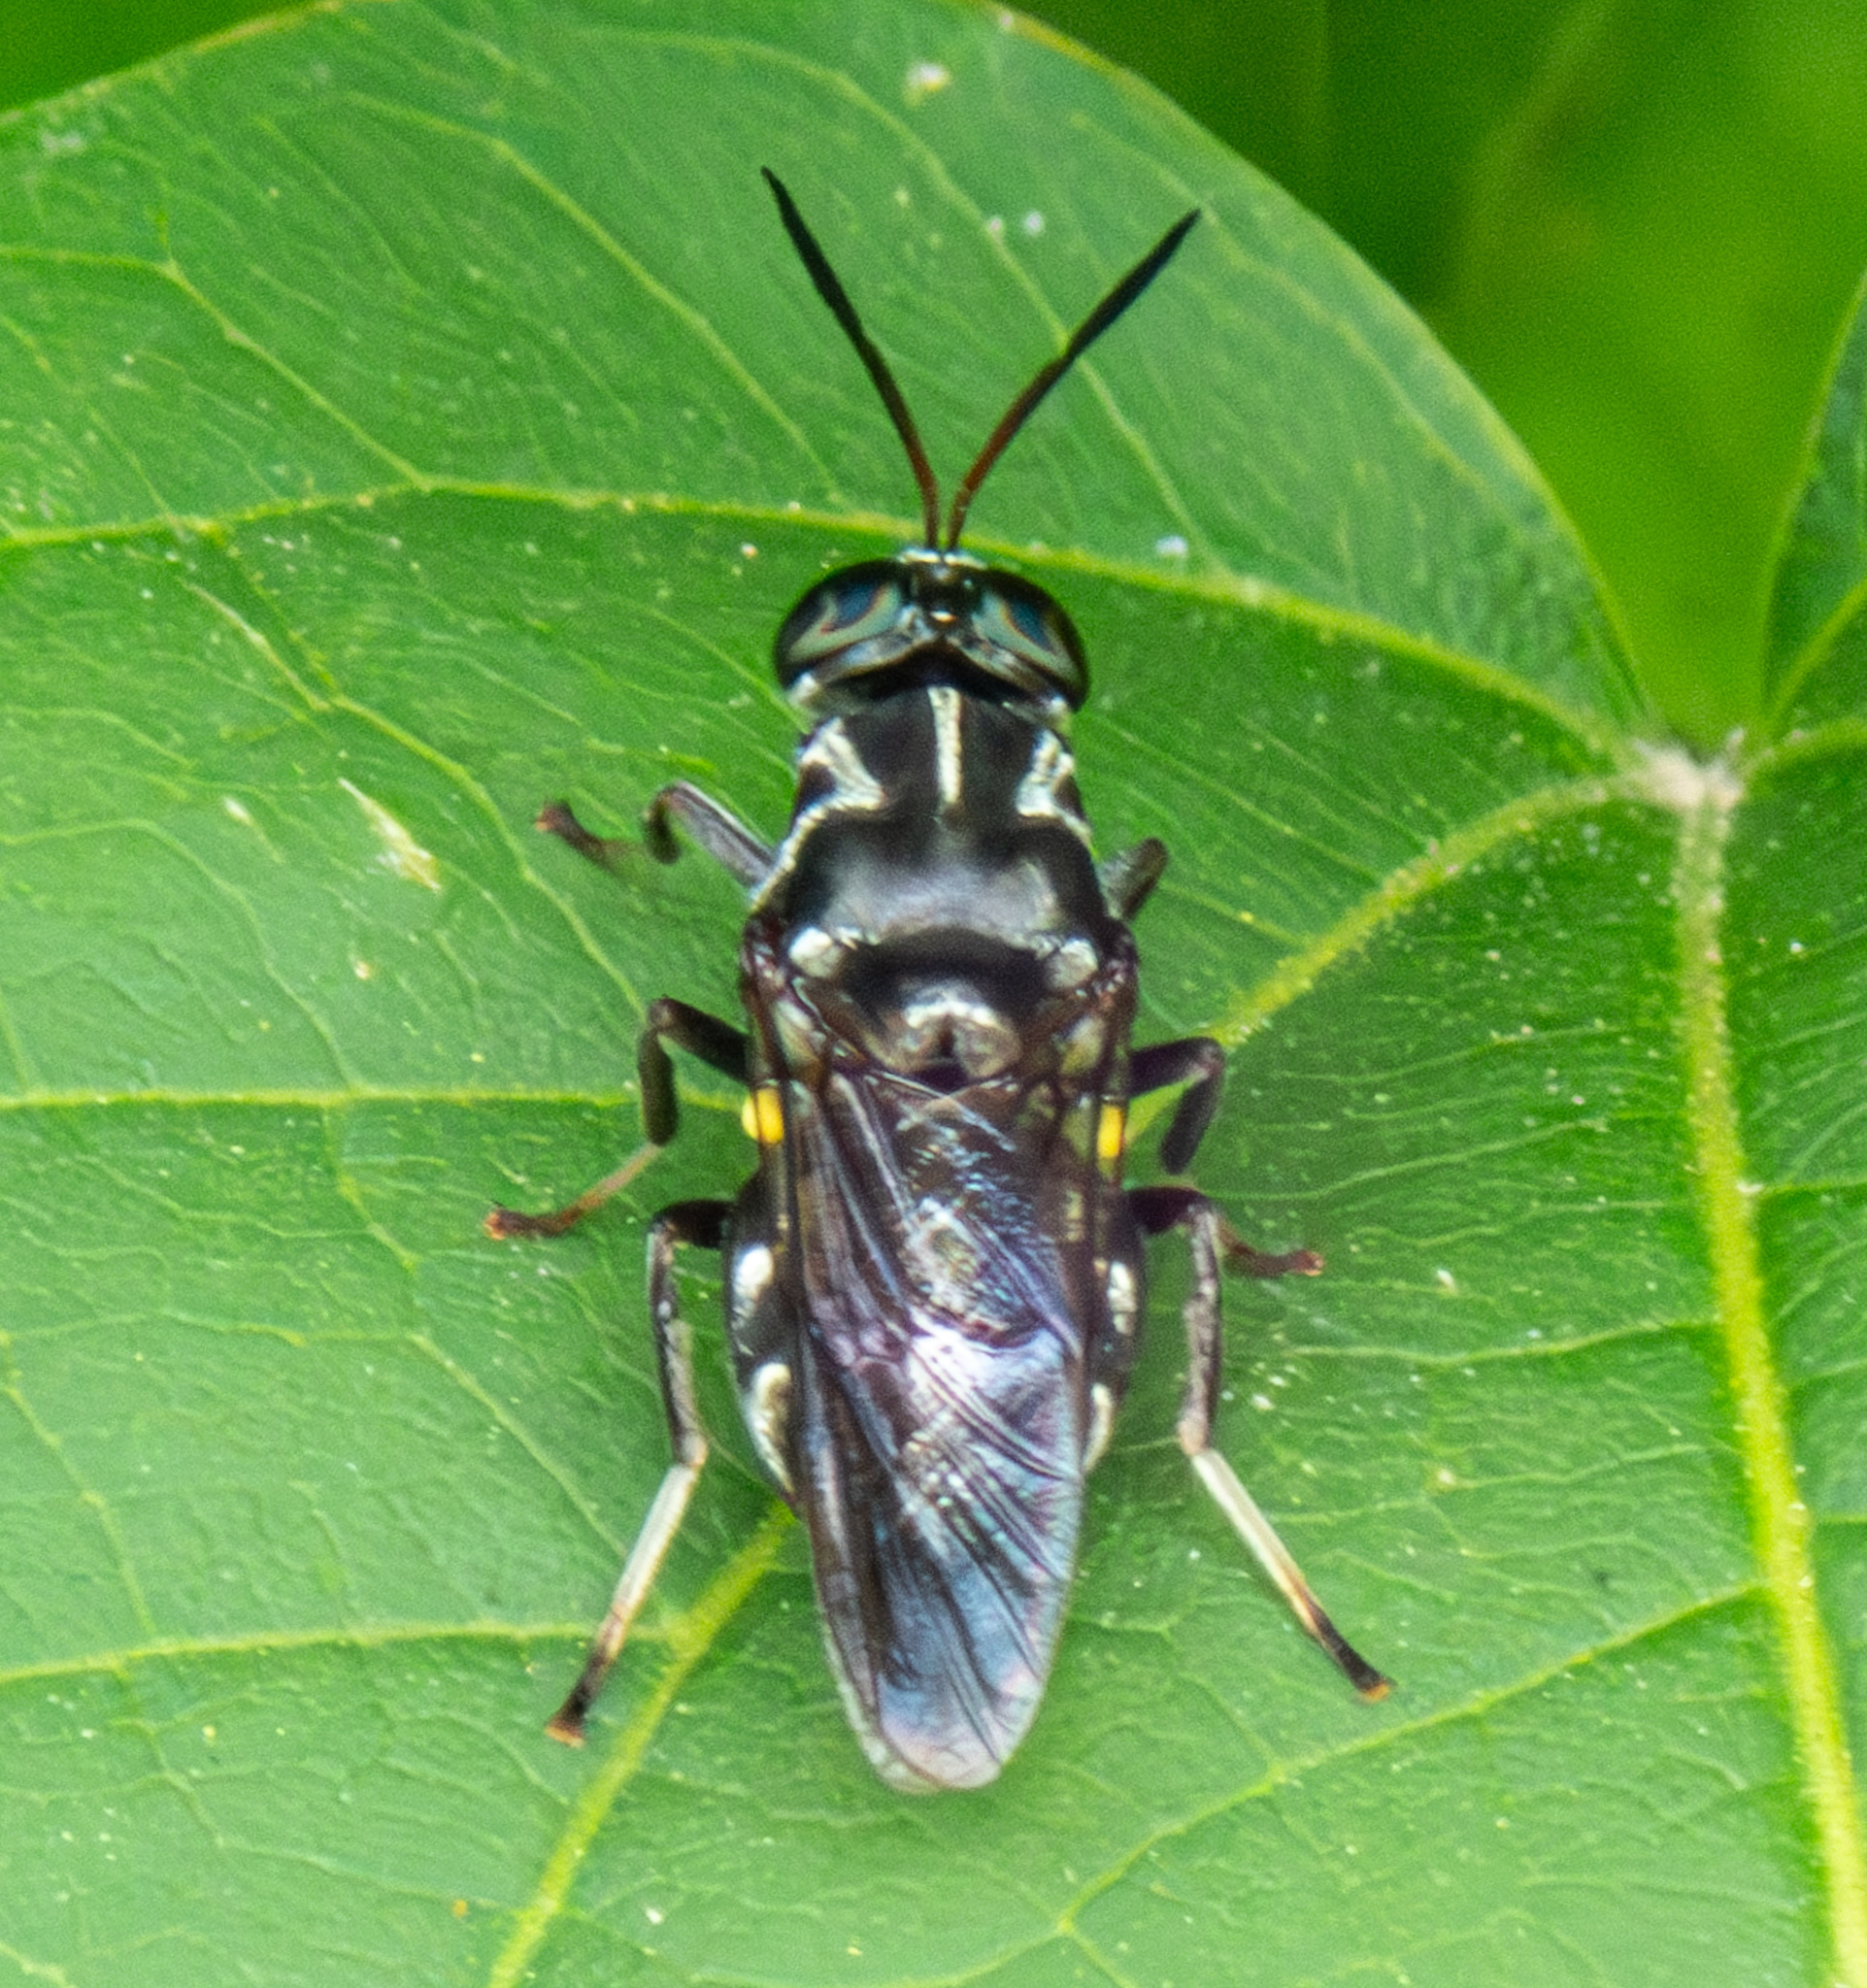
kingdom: Animalia
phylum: Arthropoda
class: Insecta
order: Diptera
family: Stratiomyidae
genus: Cyphomyia
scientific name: Cyphomyia albitarsis
